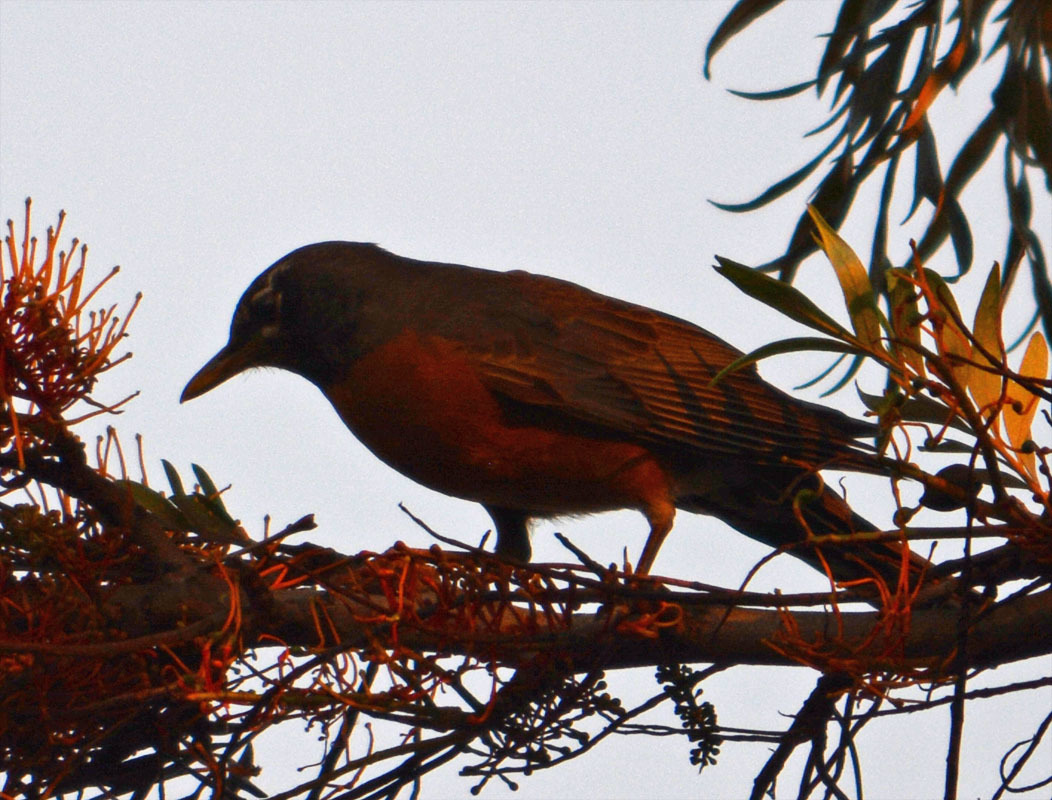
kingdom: Animalia
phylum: Chordata
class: Aves
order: Passeriformes
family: Turdidae
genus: Turdus
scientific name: Turdus migratorius
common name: American robin
